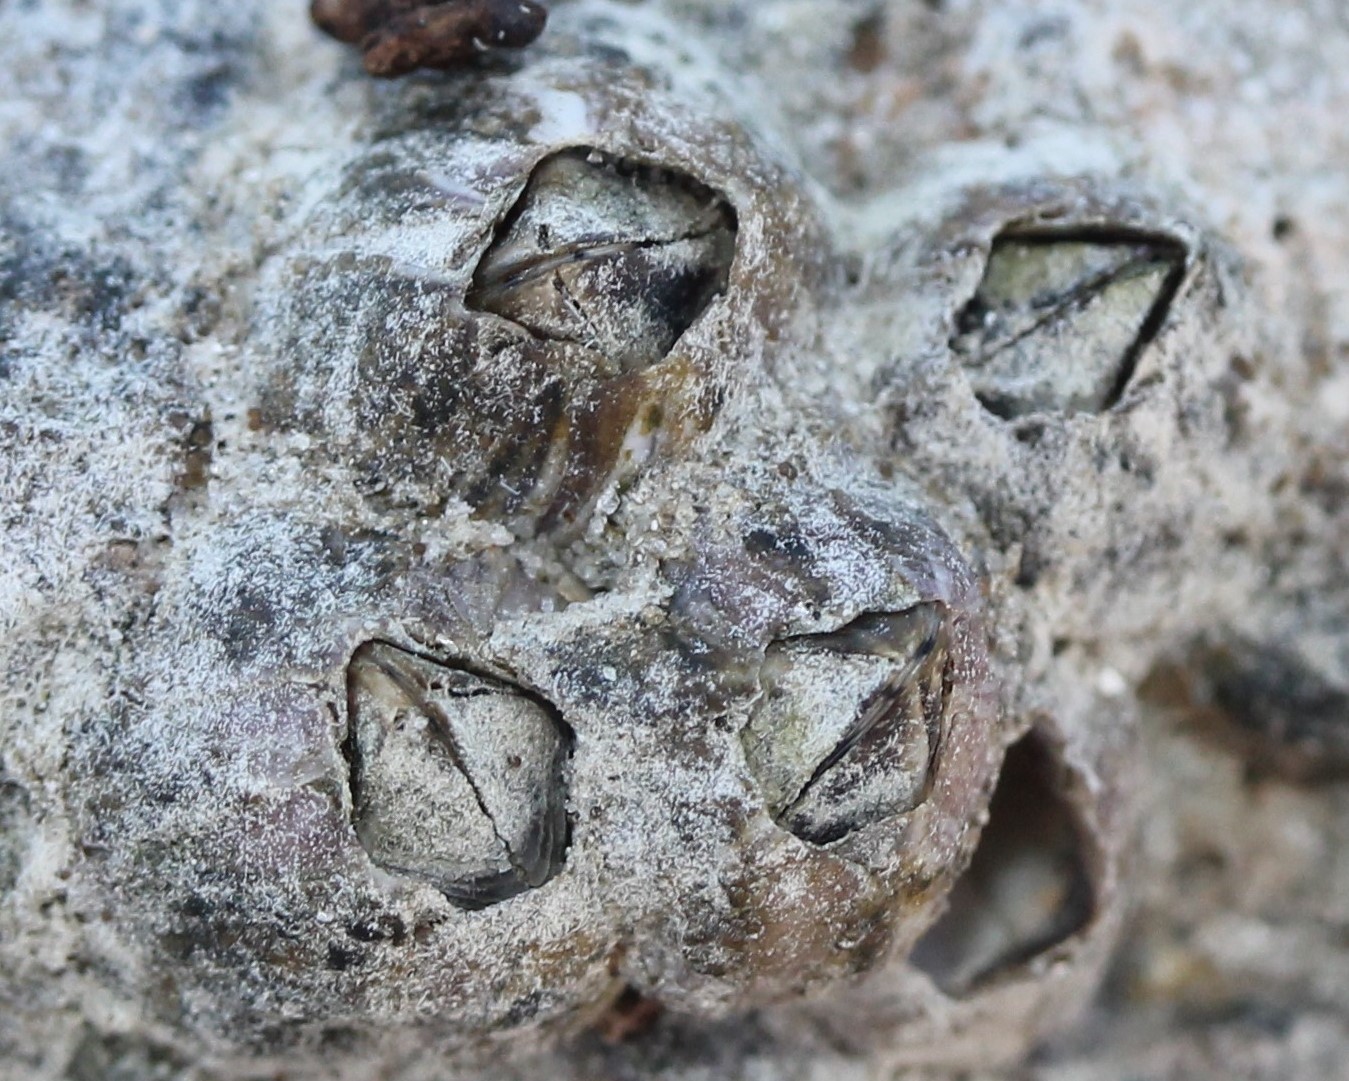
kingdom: Animalia
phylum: Arthropoda
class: Maxillopoda
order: Sessilia
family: Balanidae
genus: Amphibalanus
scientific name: Amphibalanus amphitrite
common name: Striped acorn barnacle
